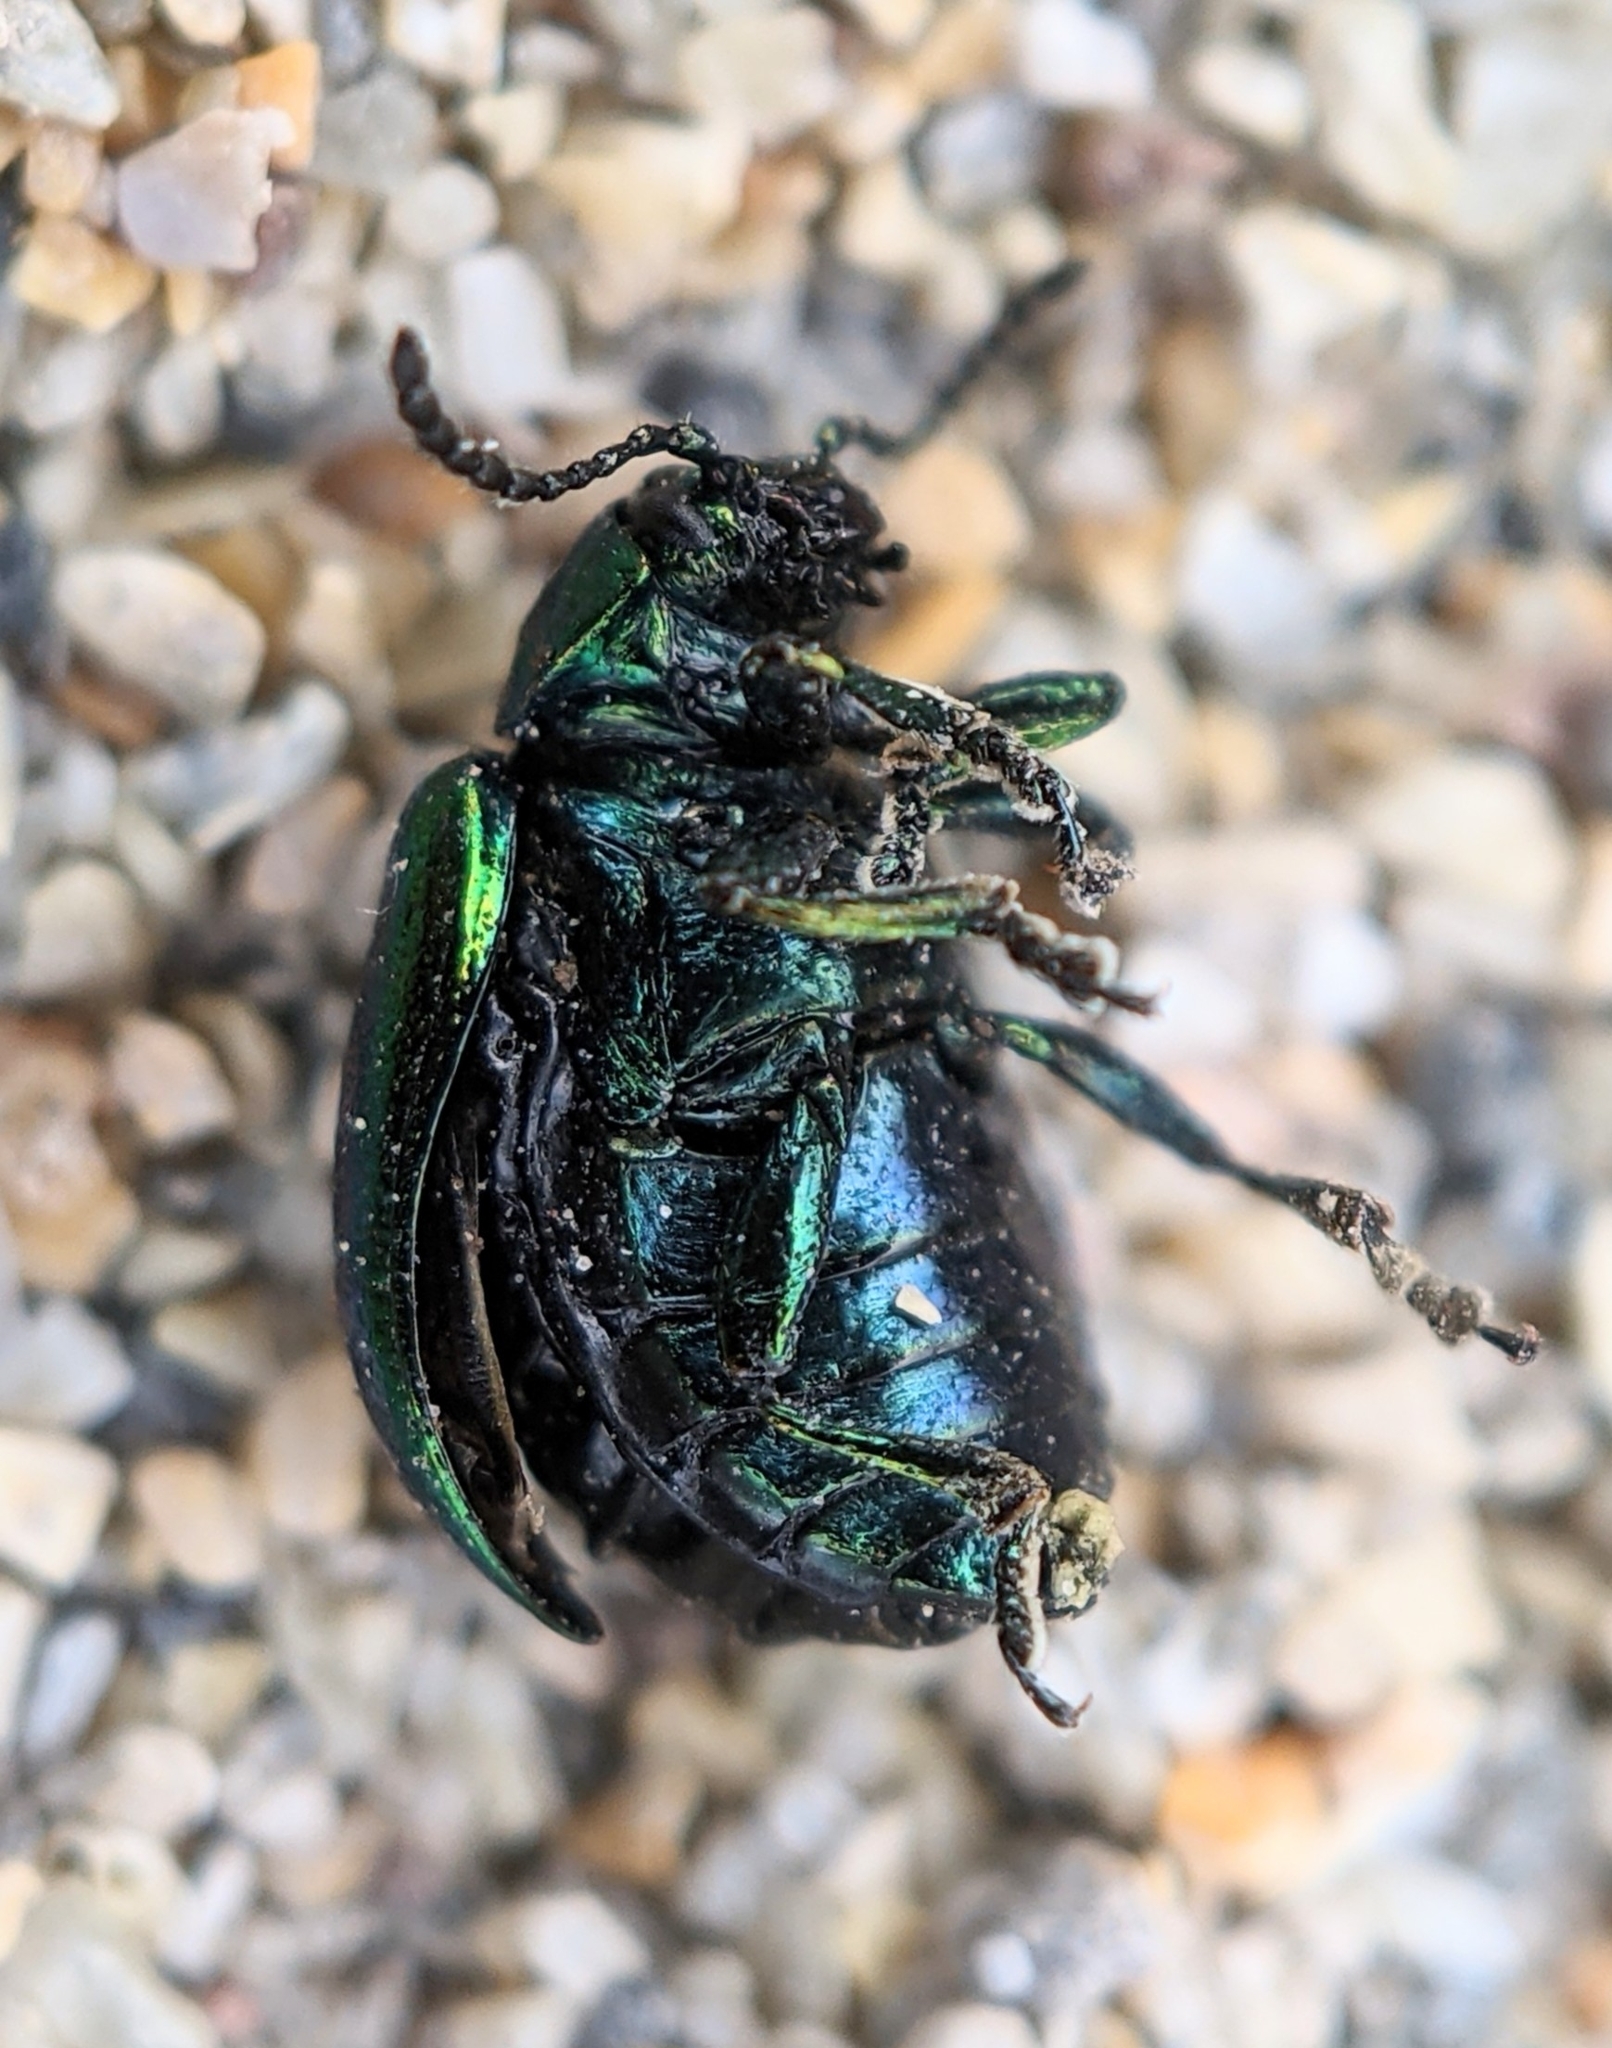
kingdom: Animalia
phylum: Arthropoda
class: Insecta
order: Coleoptera
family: Chrysomelidae
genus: Gastrophysa
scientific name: Gastrophysa viridula
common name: Green dock beetle
